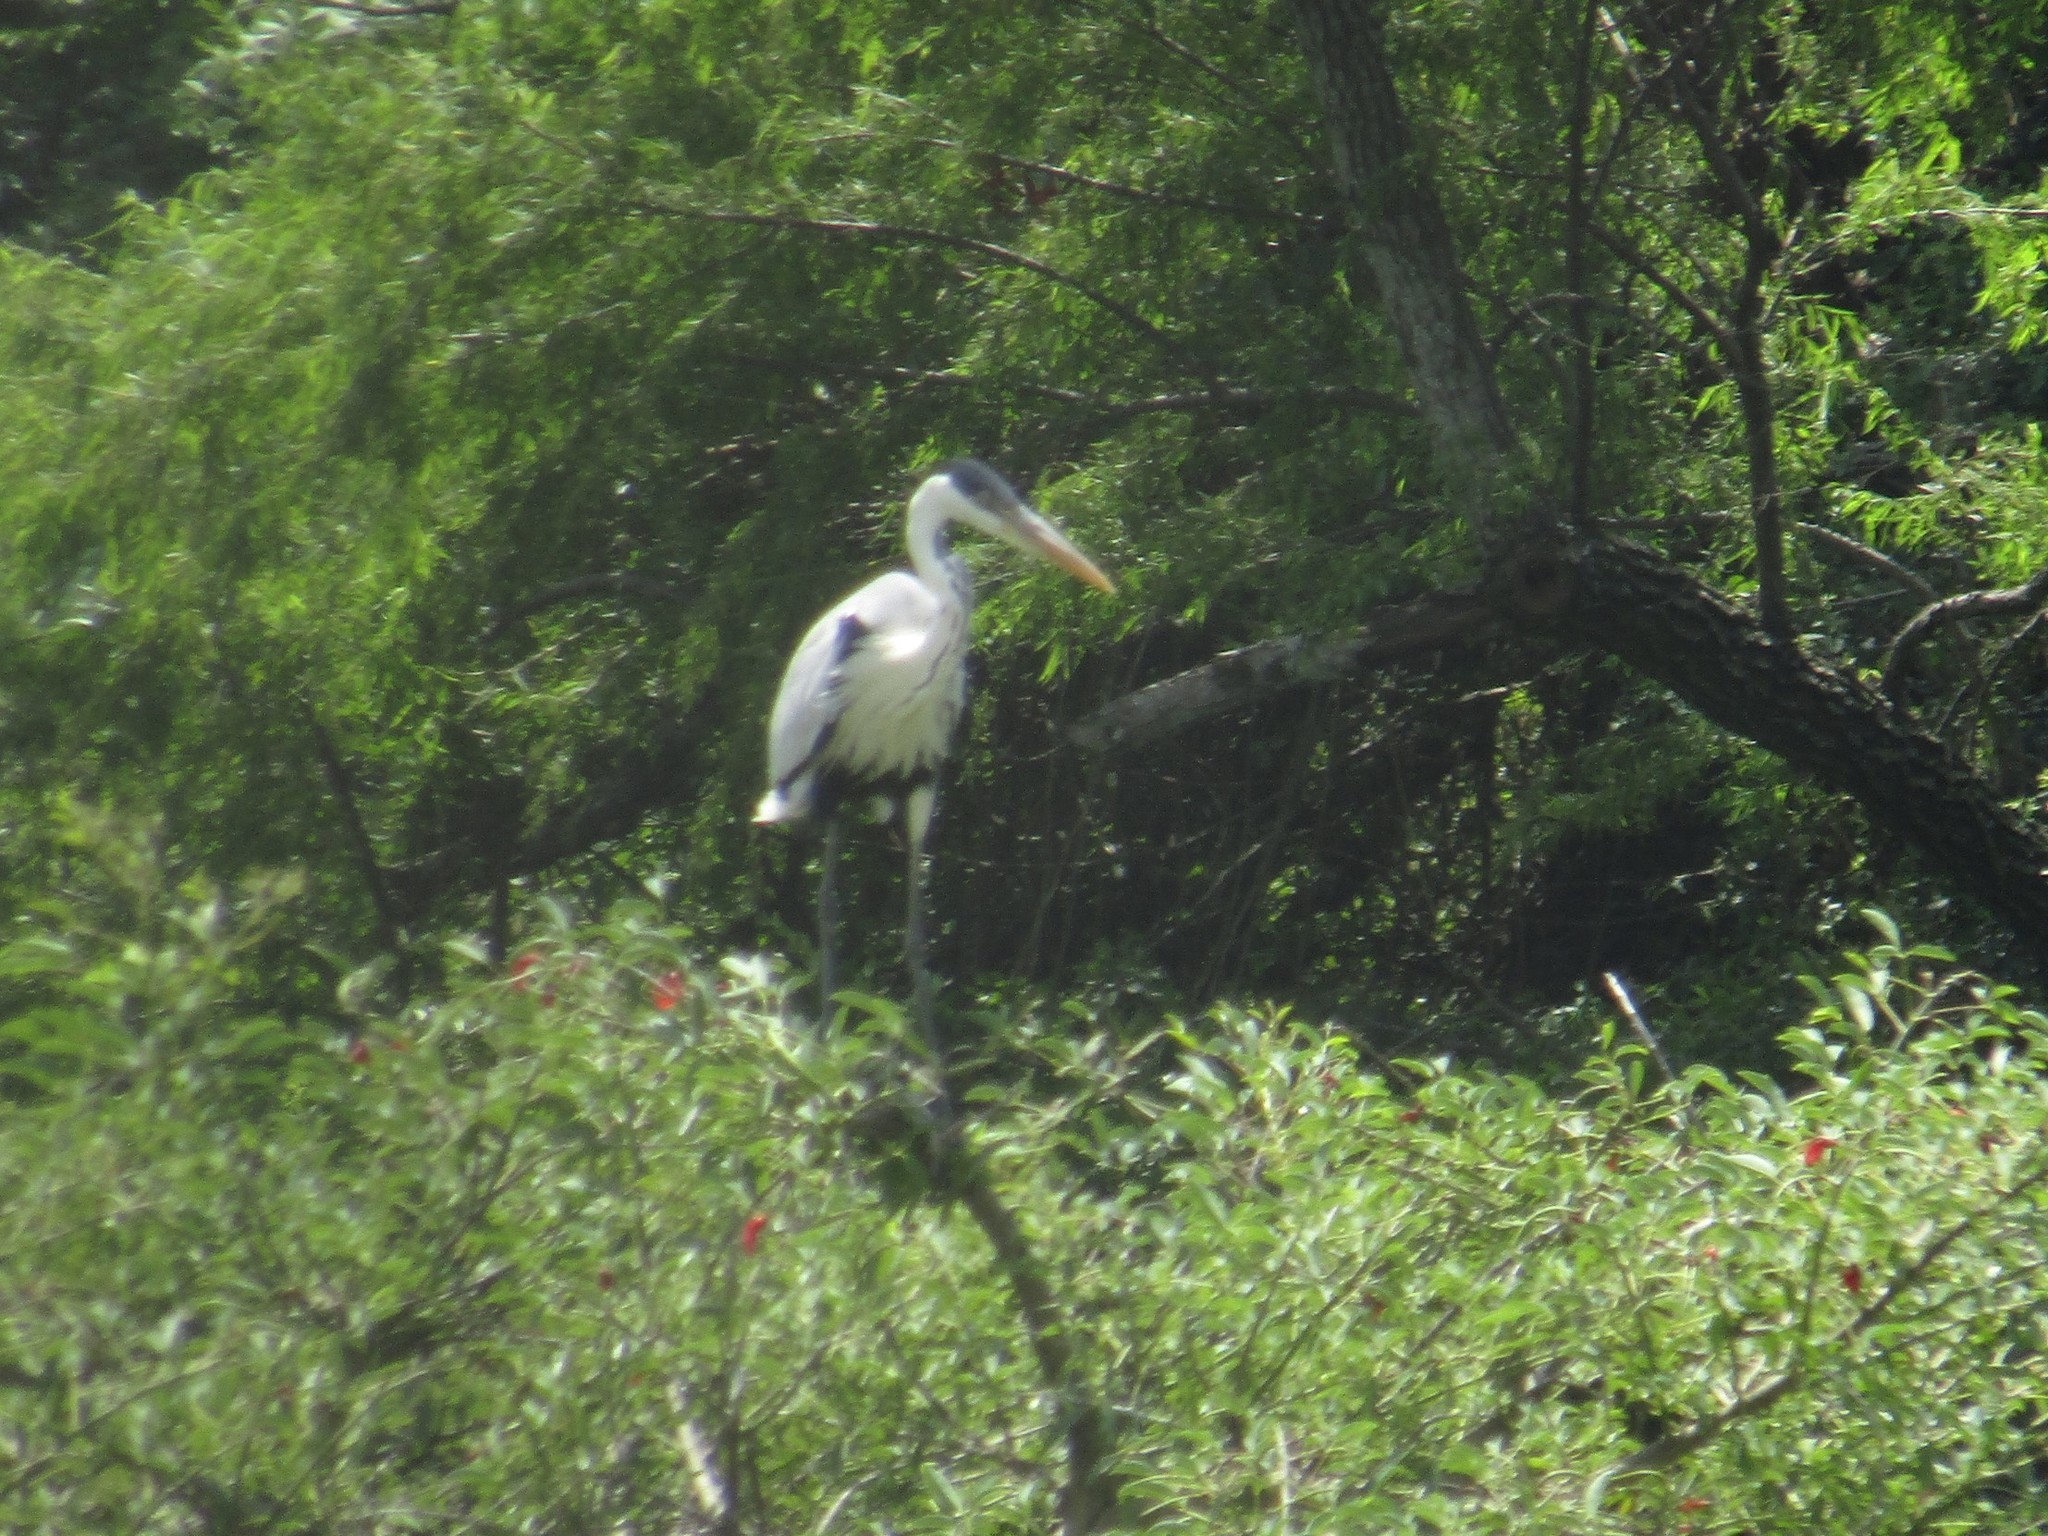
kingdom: Animalia
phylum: Chordata
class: Aves
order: Pelecaniformes
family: Ardeidae
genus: Ardea
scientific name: Ardea cocoi
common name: Cocoi heron
